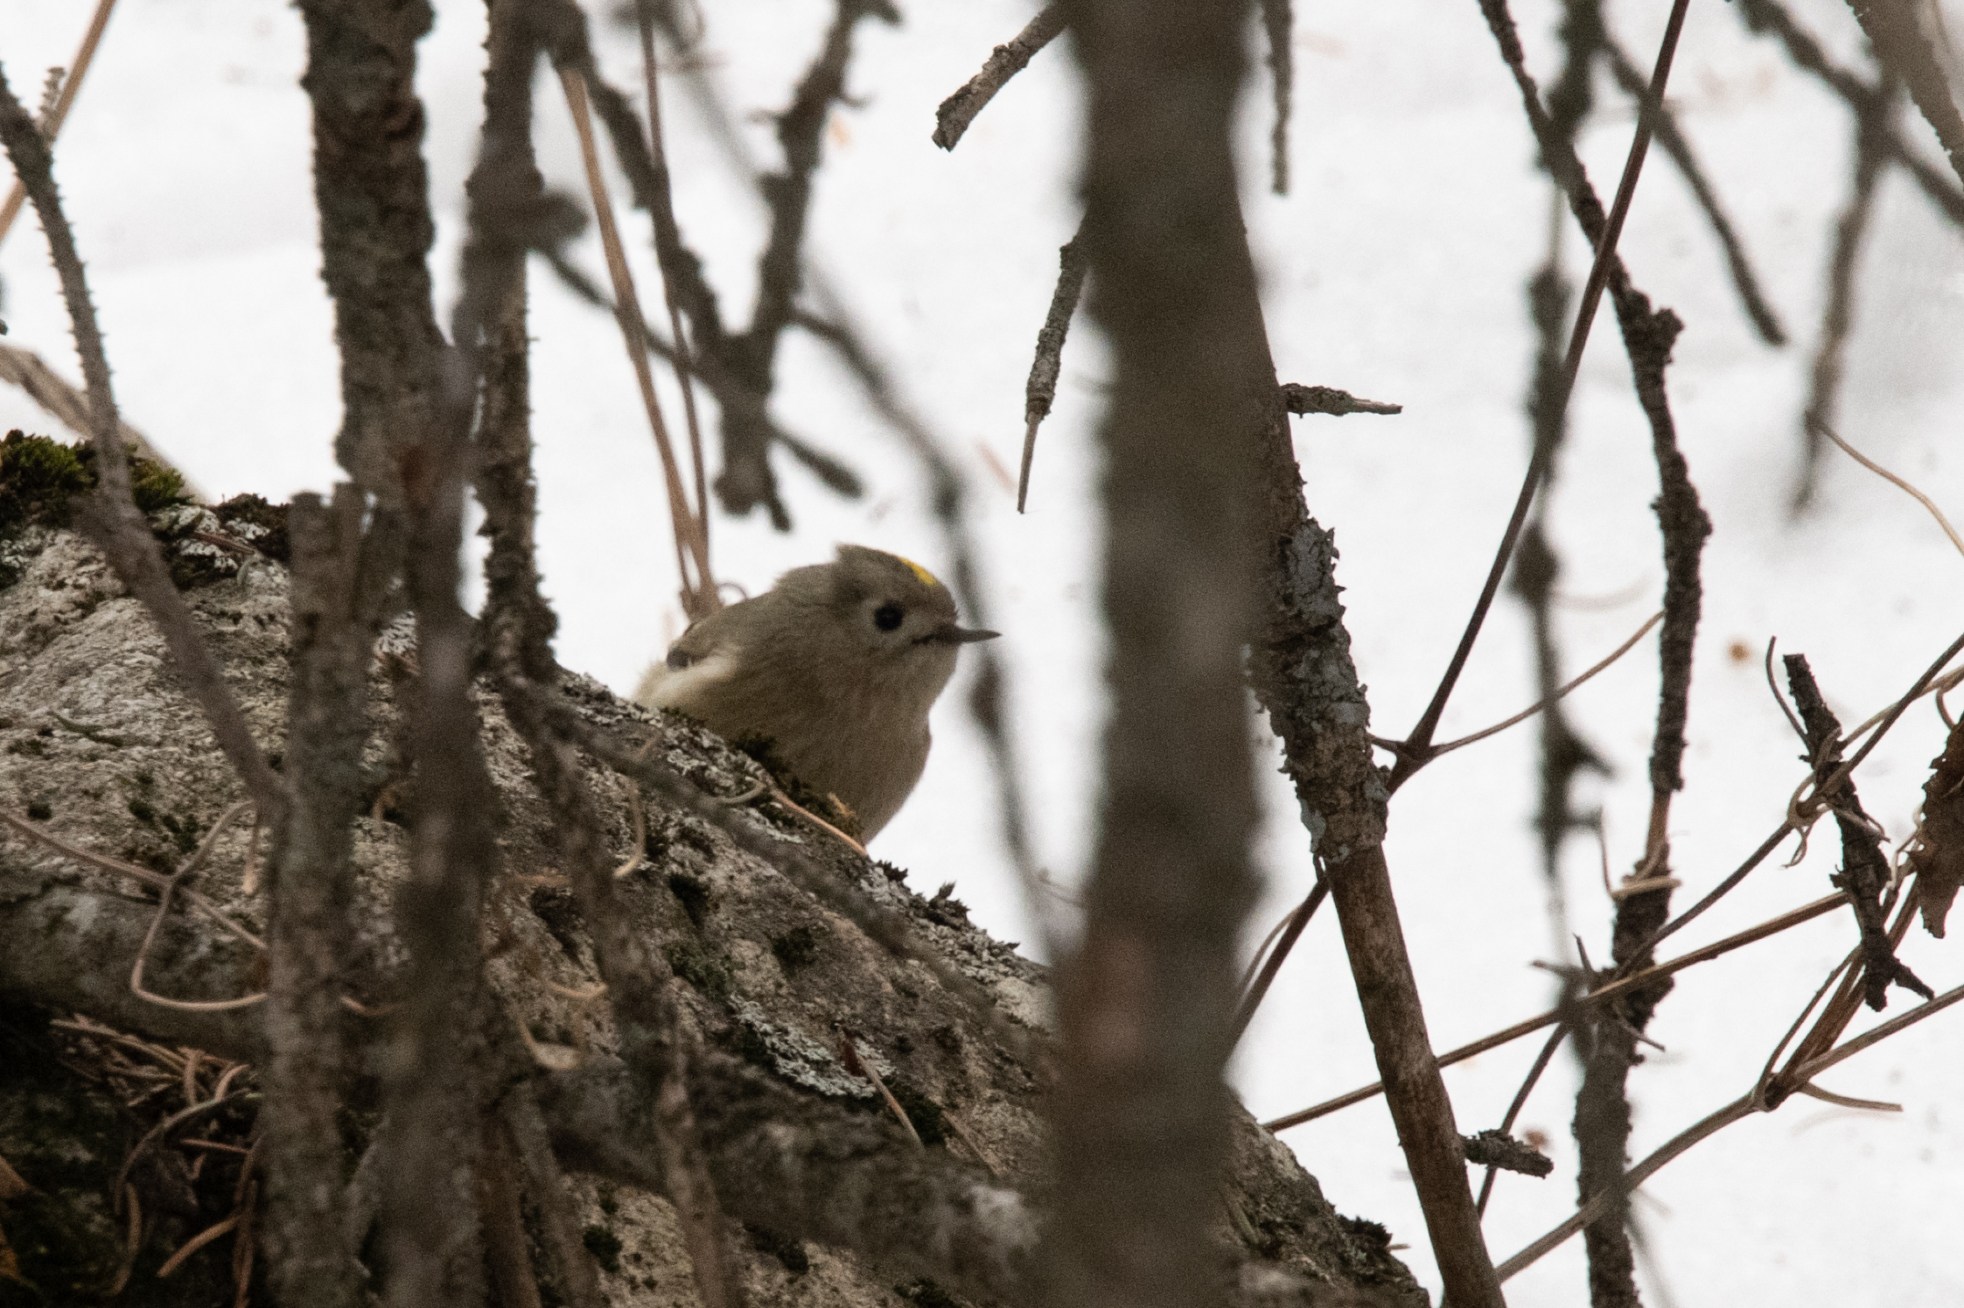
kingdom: Animalia
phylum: Chordata
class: Aves
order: Passeriformes
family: Regulidae
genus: Regulus
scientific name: Regulus regulus
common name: Goldcrest
